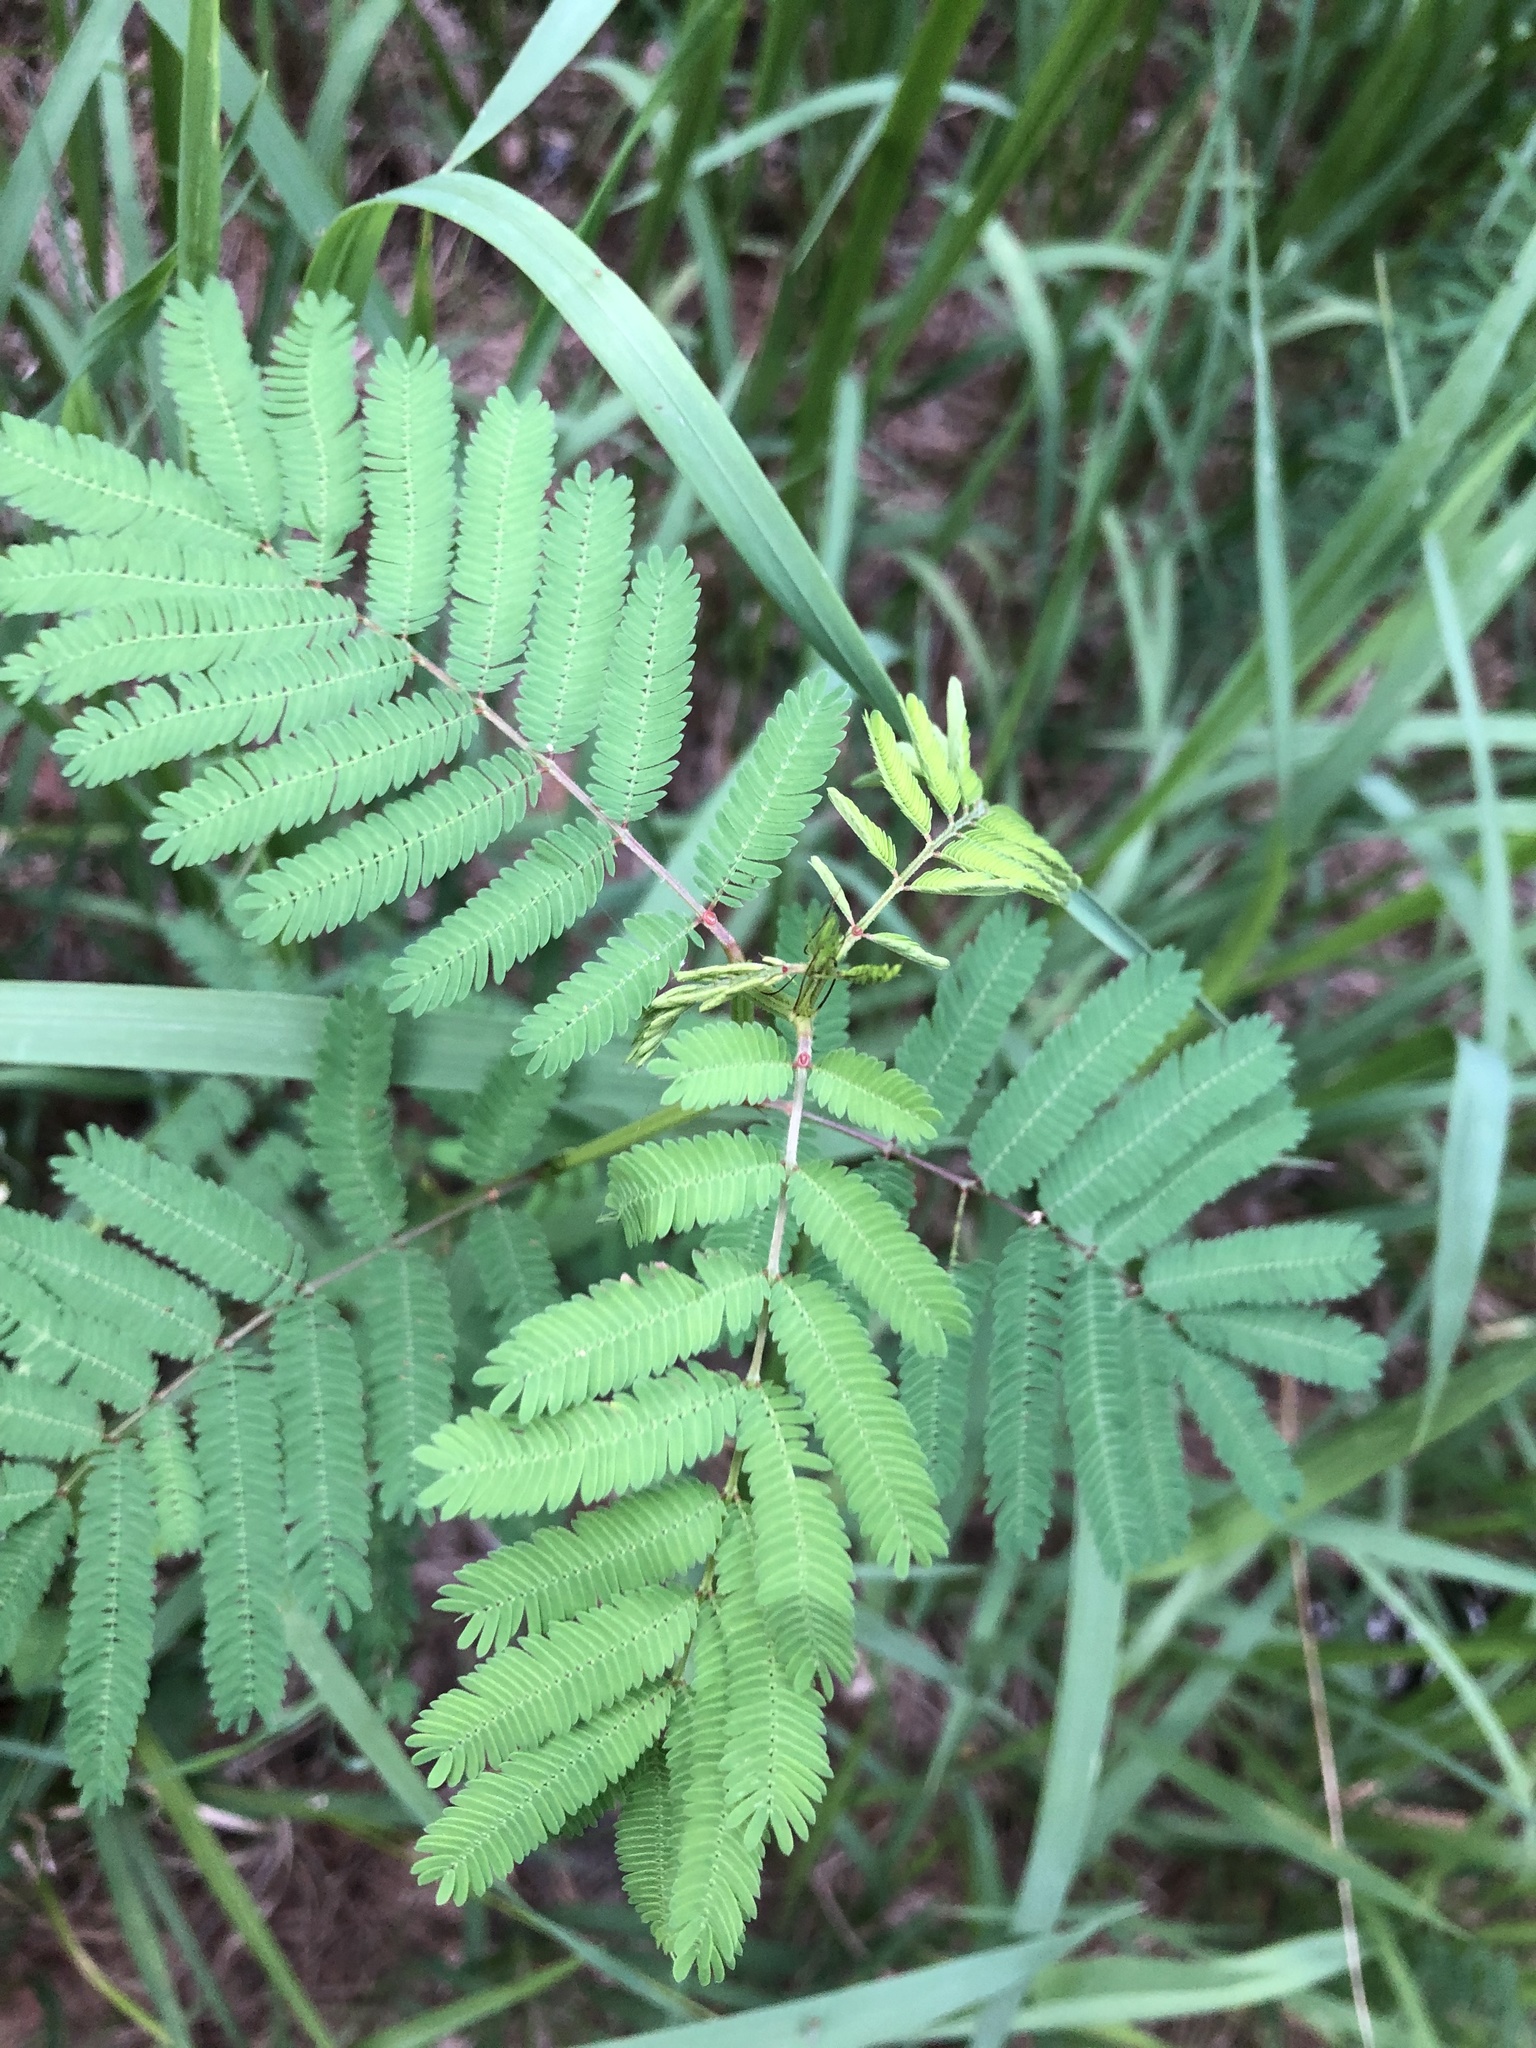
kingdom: Plantae
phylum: Tracheophyta
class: Magnoliopsida
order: Fabales
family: Fabaceae
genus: Desmanthus
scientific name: Desmanthus illinoensis
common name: Illinois bundle-flower
